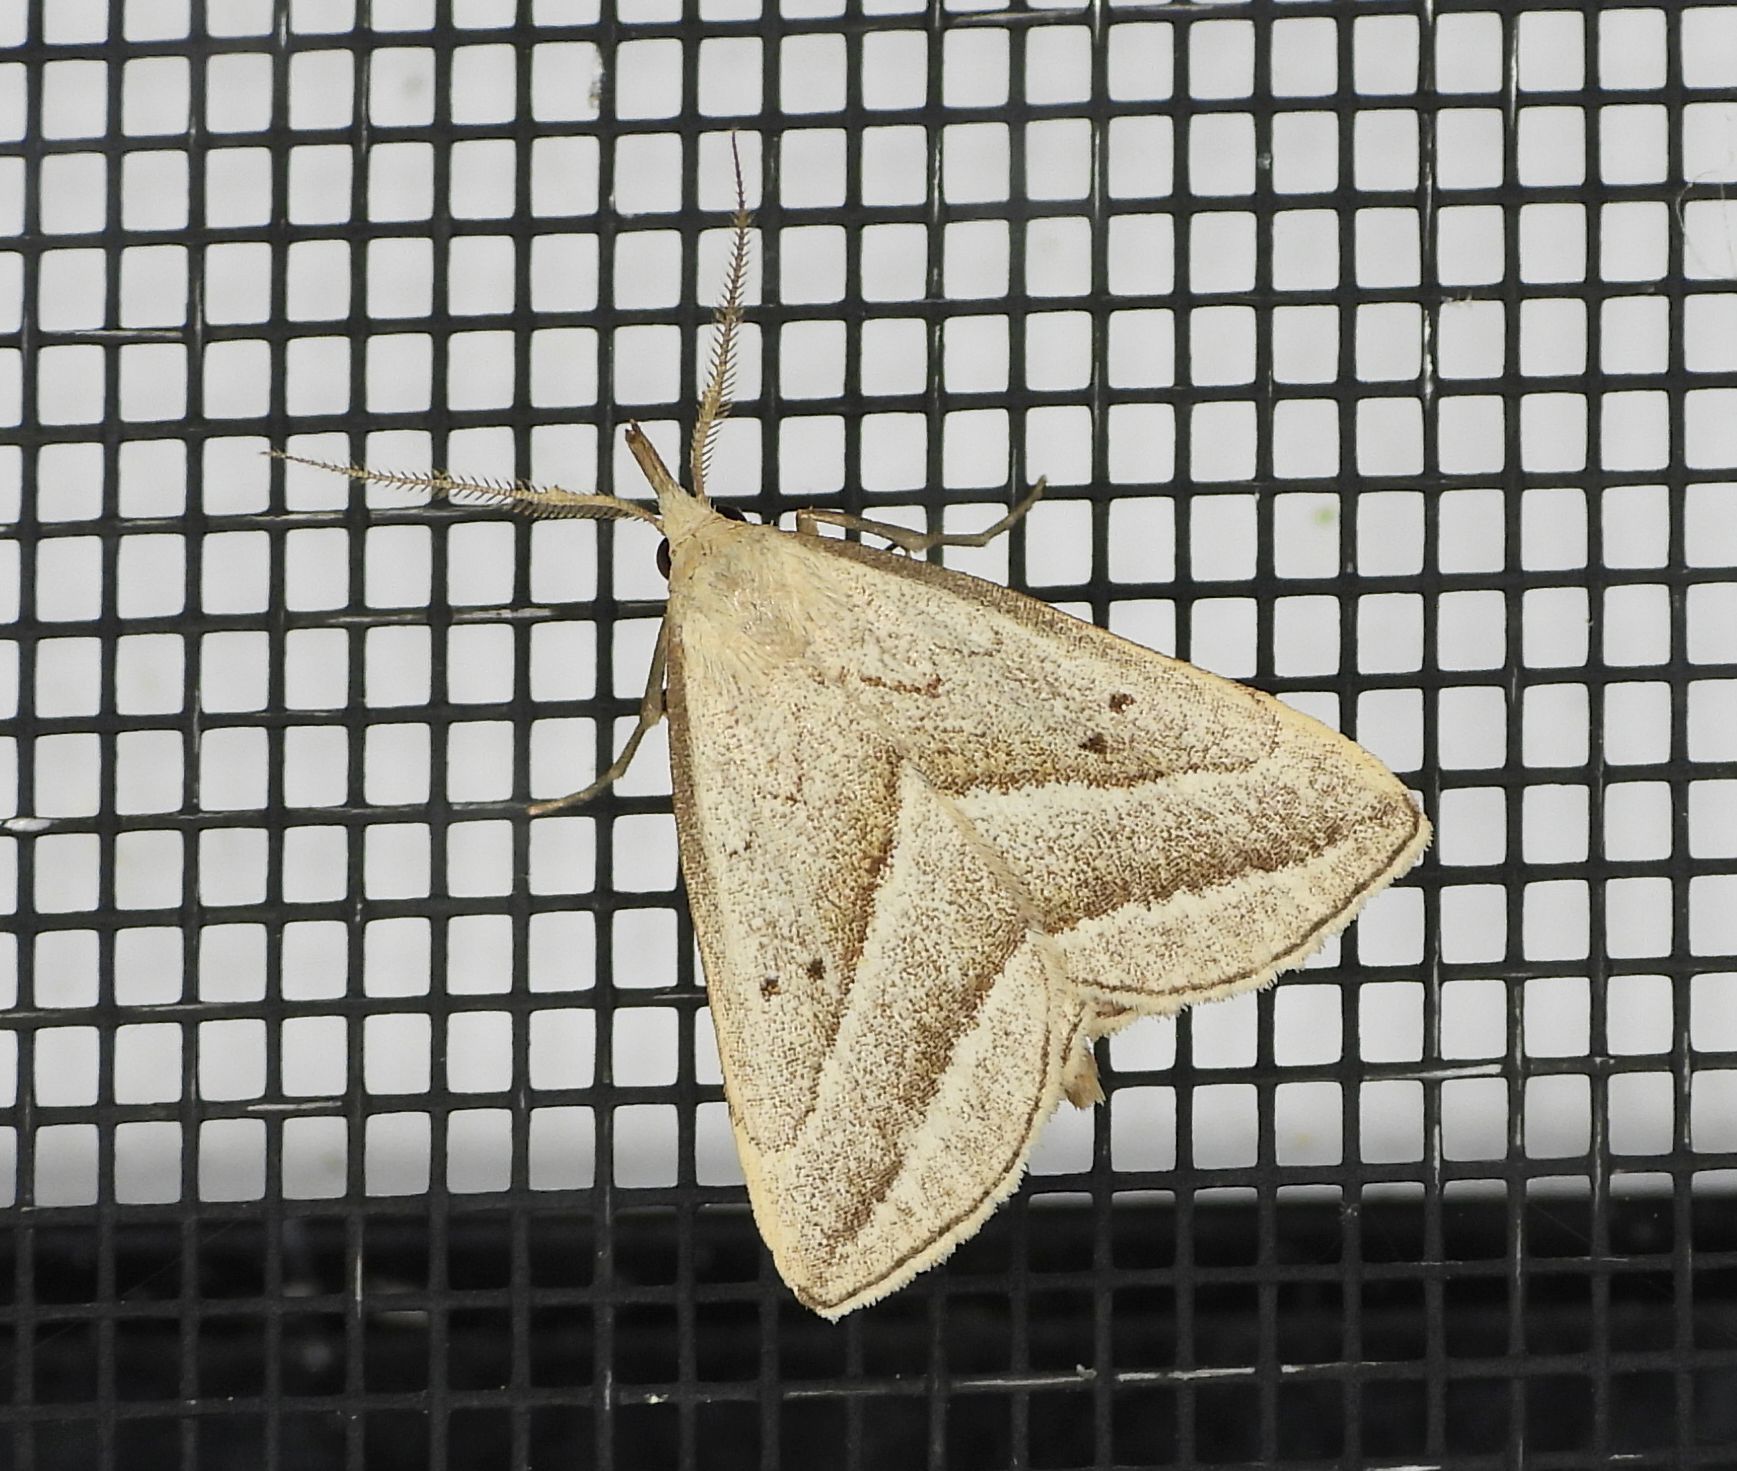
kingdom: Animalia
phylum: Arthropoda
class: Insecta
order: Lepidoptera
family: Erebidae
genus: Macrochilo
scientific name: Macrochilo absorptalis
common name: Slant-lined owlet
